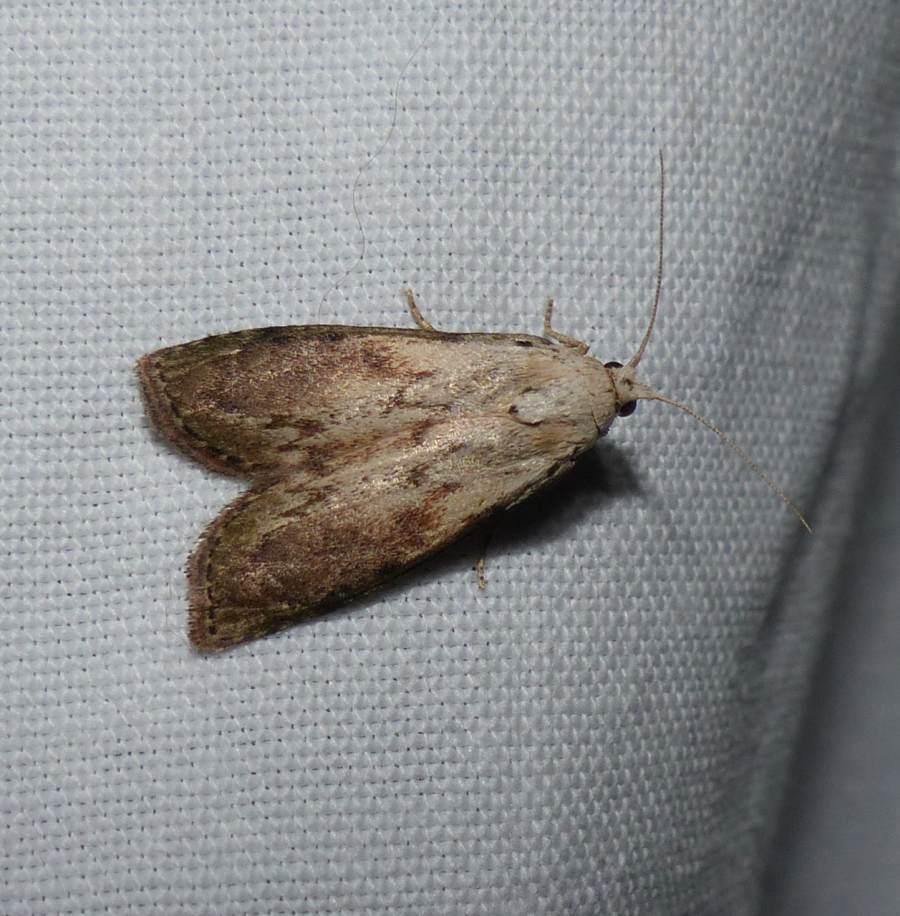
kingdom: Animalia
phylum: Arthropoda
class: Insecta
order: Lepidoptera
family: Pyralidae
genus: Aphomia
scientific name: Aphomia sociella
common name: Bee moth
